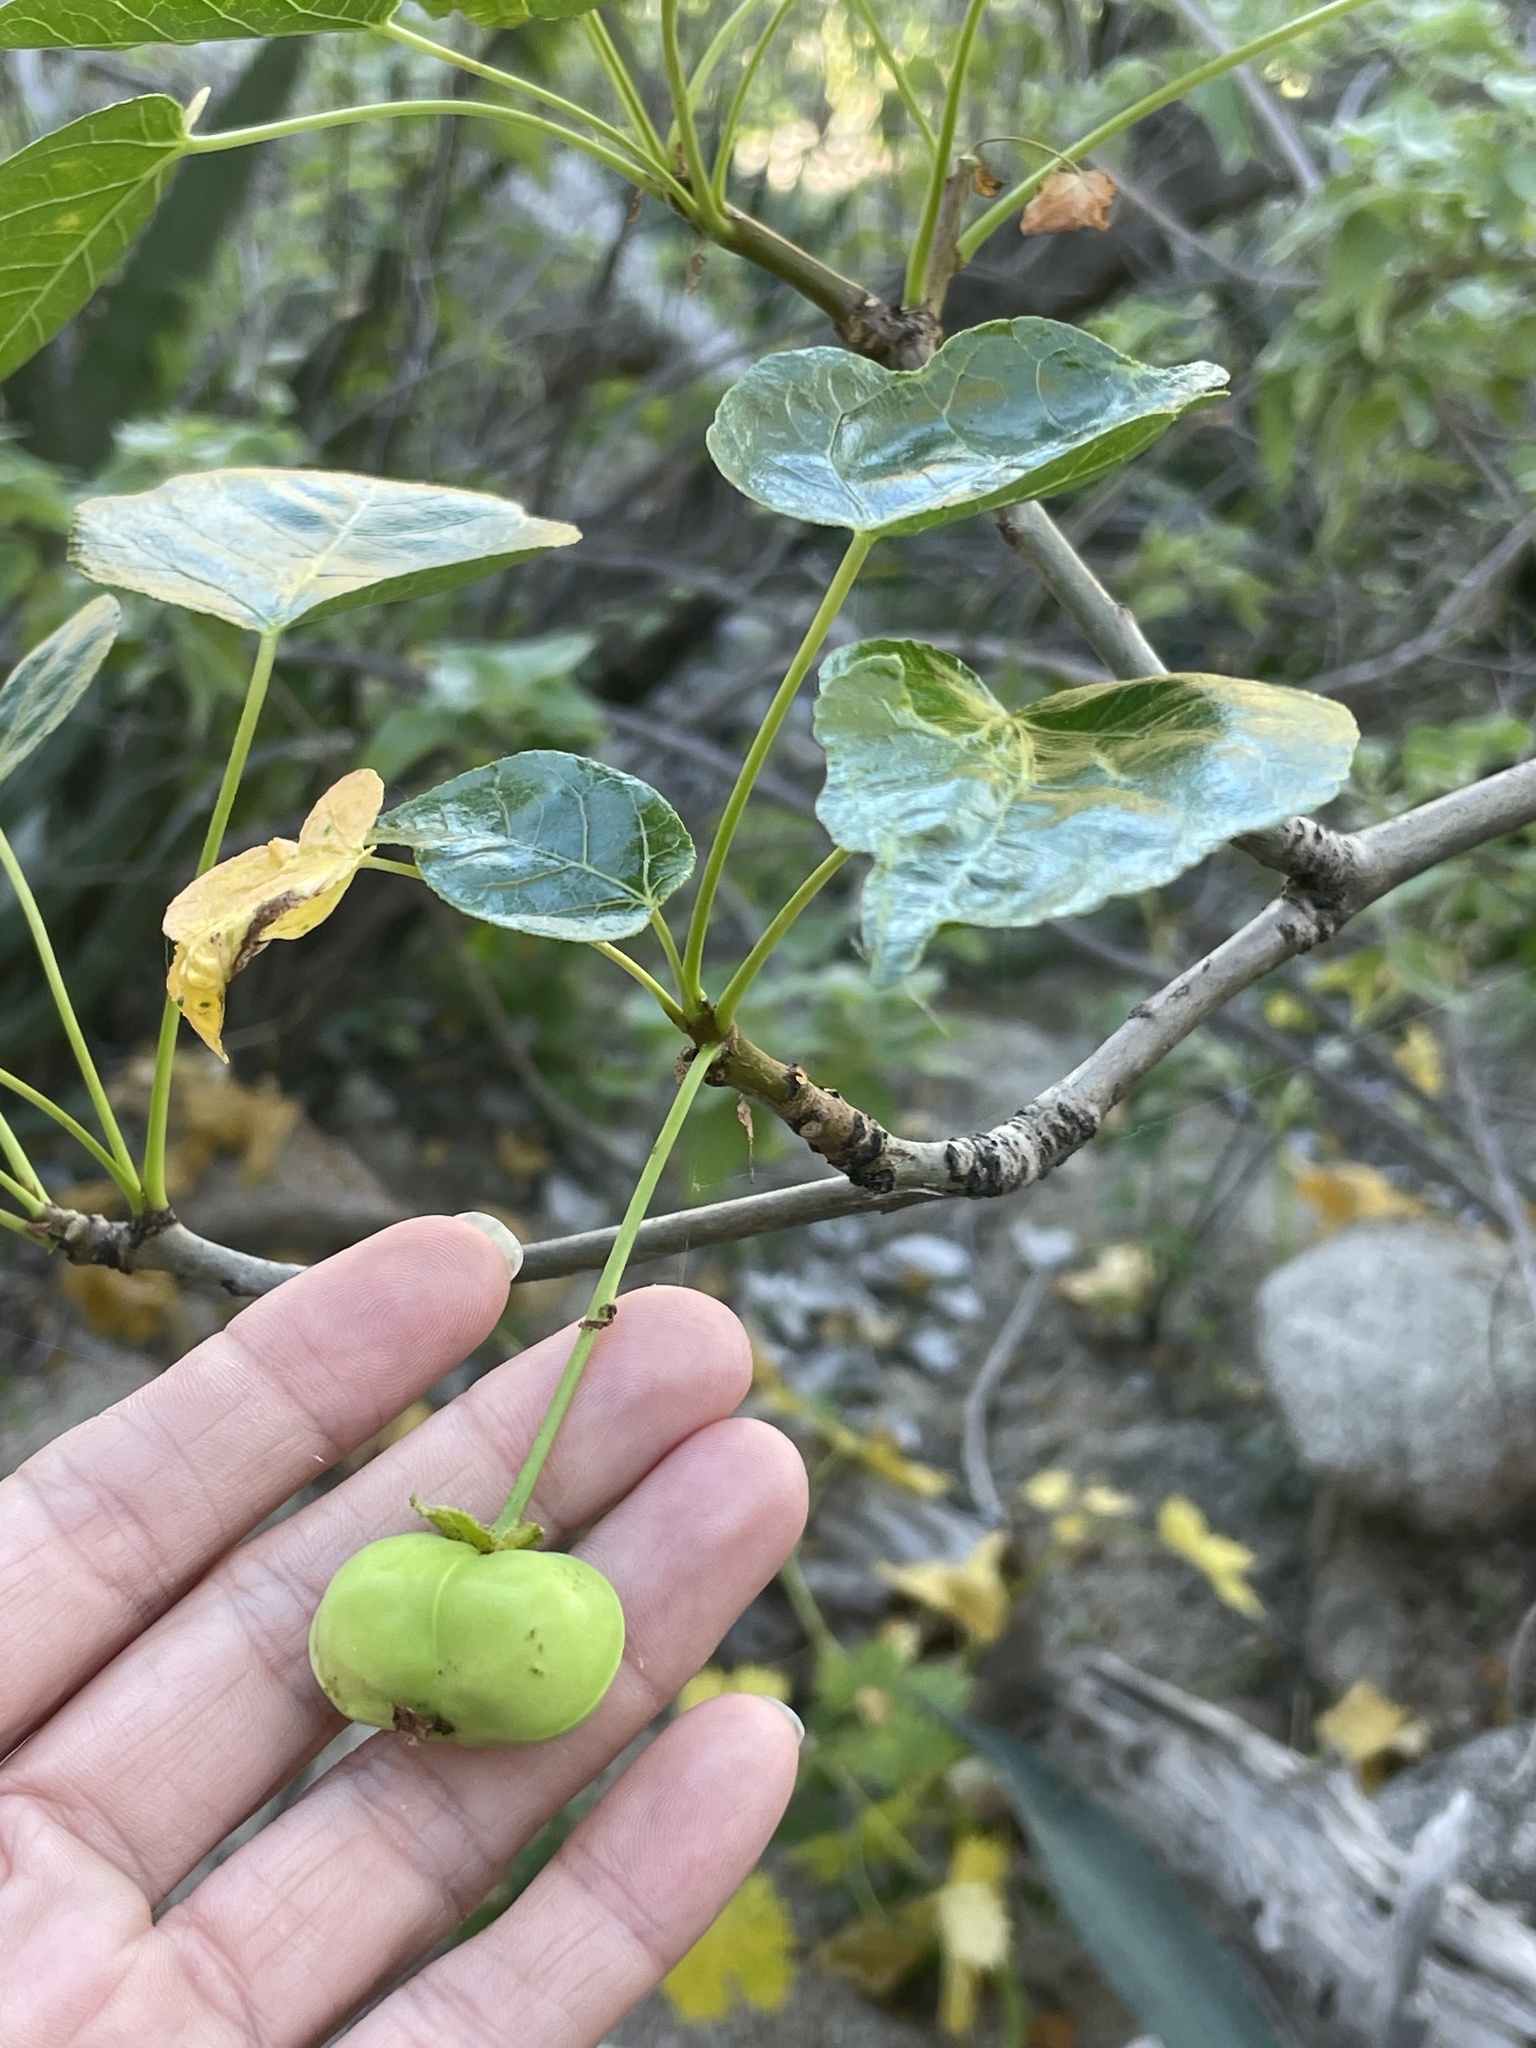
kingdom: Plantae
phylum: Tracheophyta
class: Magnoliopsida
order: Malpighiales
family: Euphorbiaceae
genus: Jatropha
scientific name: Jatropha vernicosa
